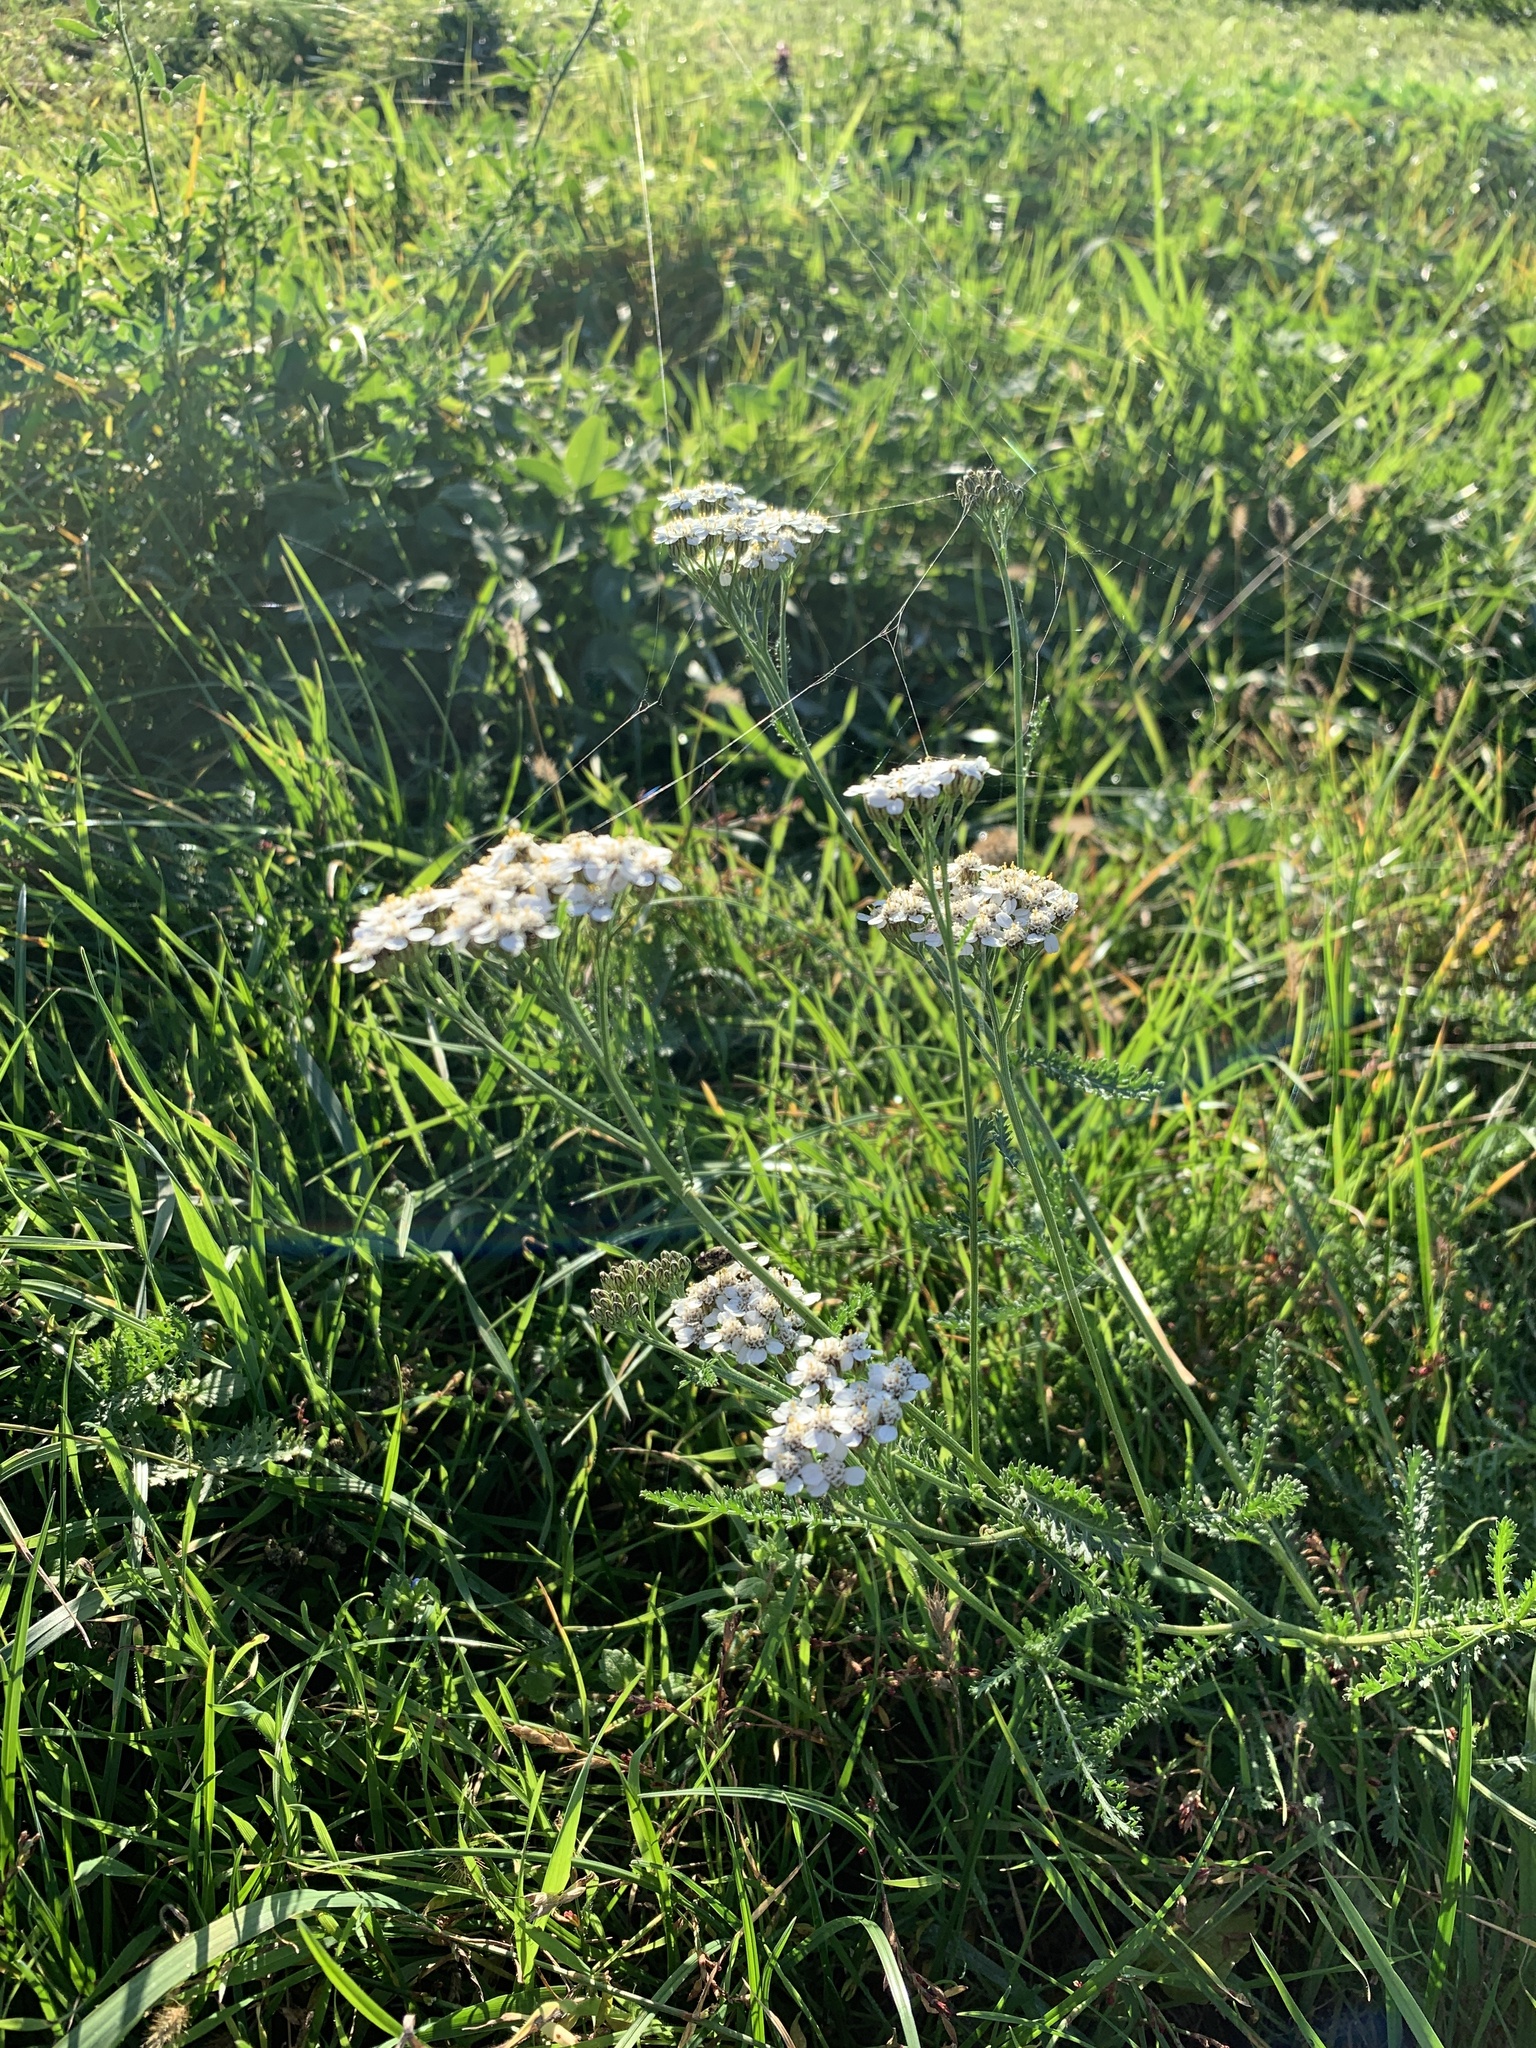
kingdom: Plantae
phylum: Tracheophyta
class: Magnoliopsida
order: Asterales
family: Asteraceae
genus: Achillea
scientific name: Achillea millefolium
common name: Yarrow
